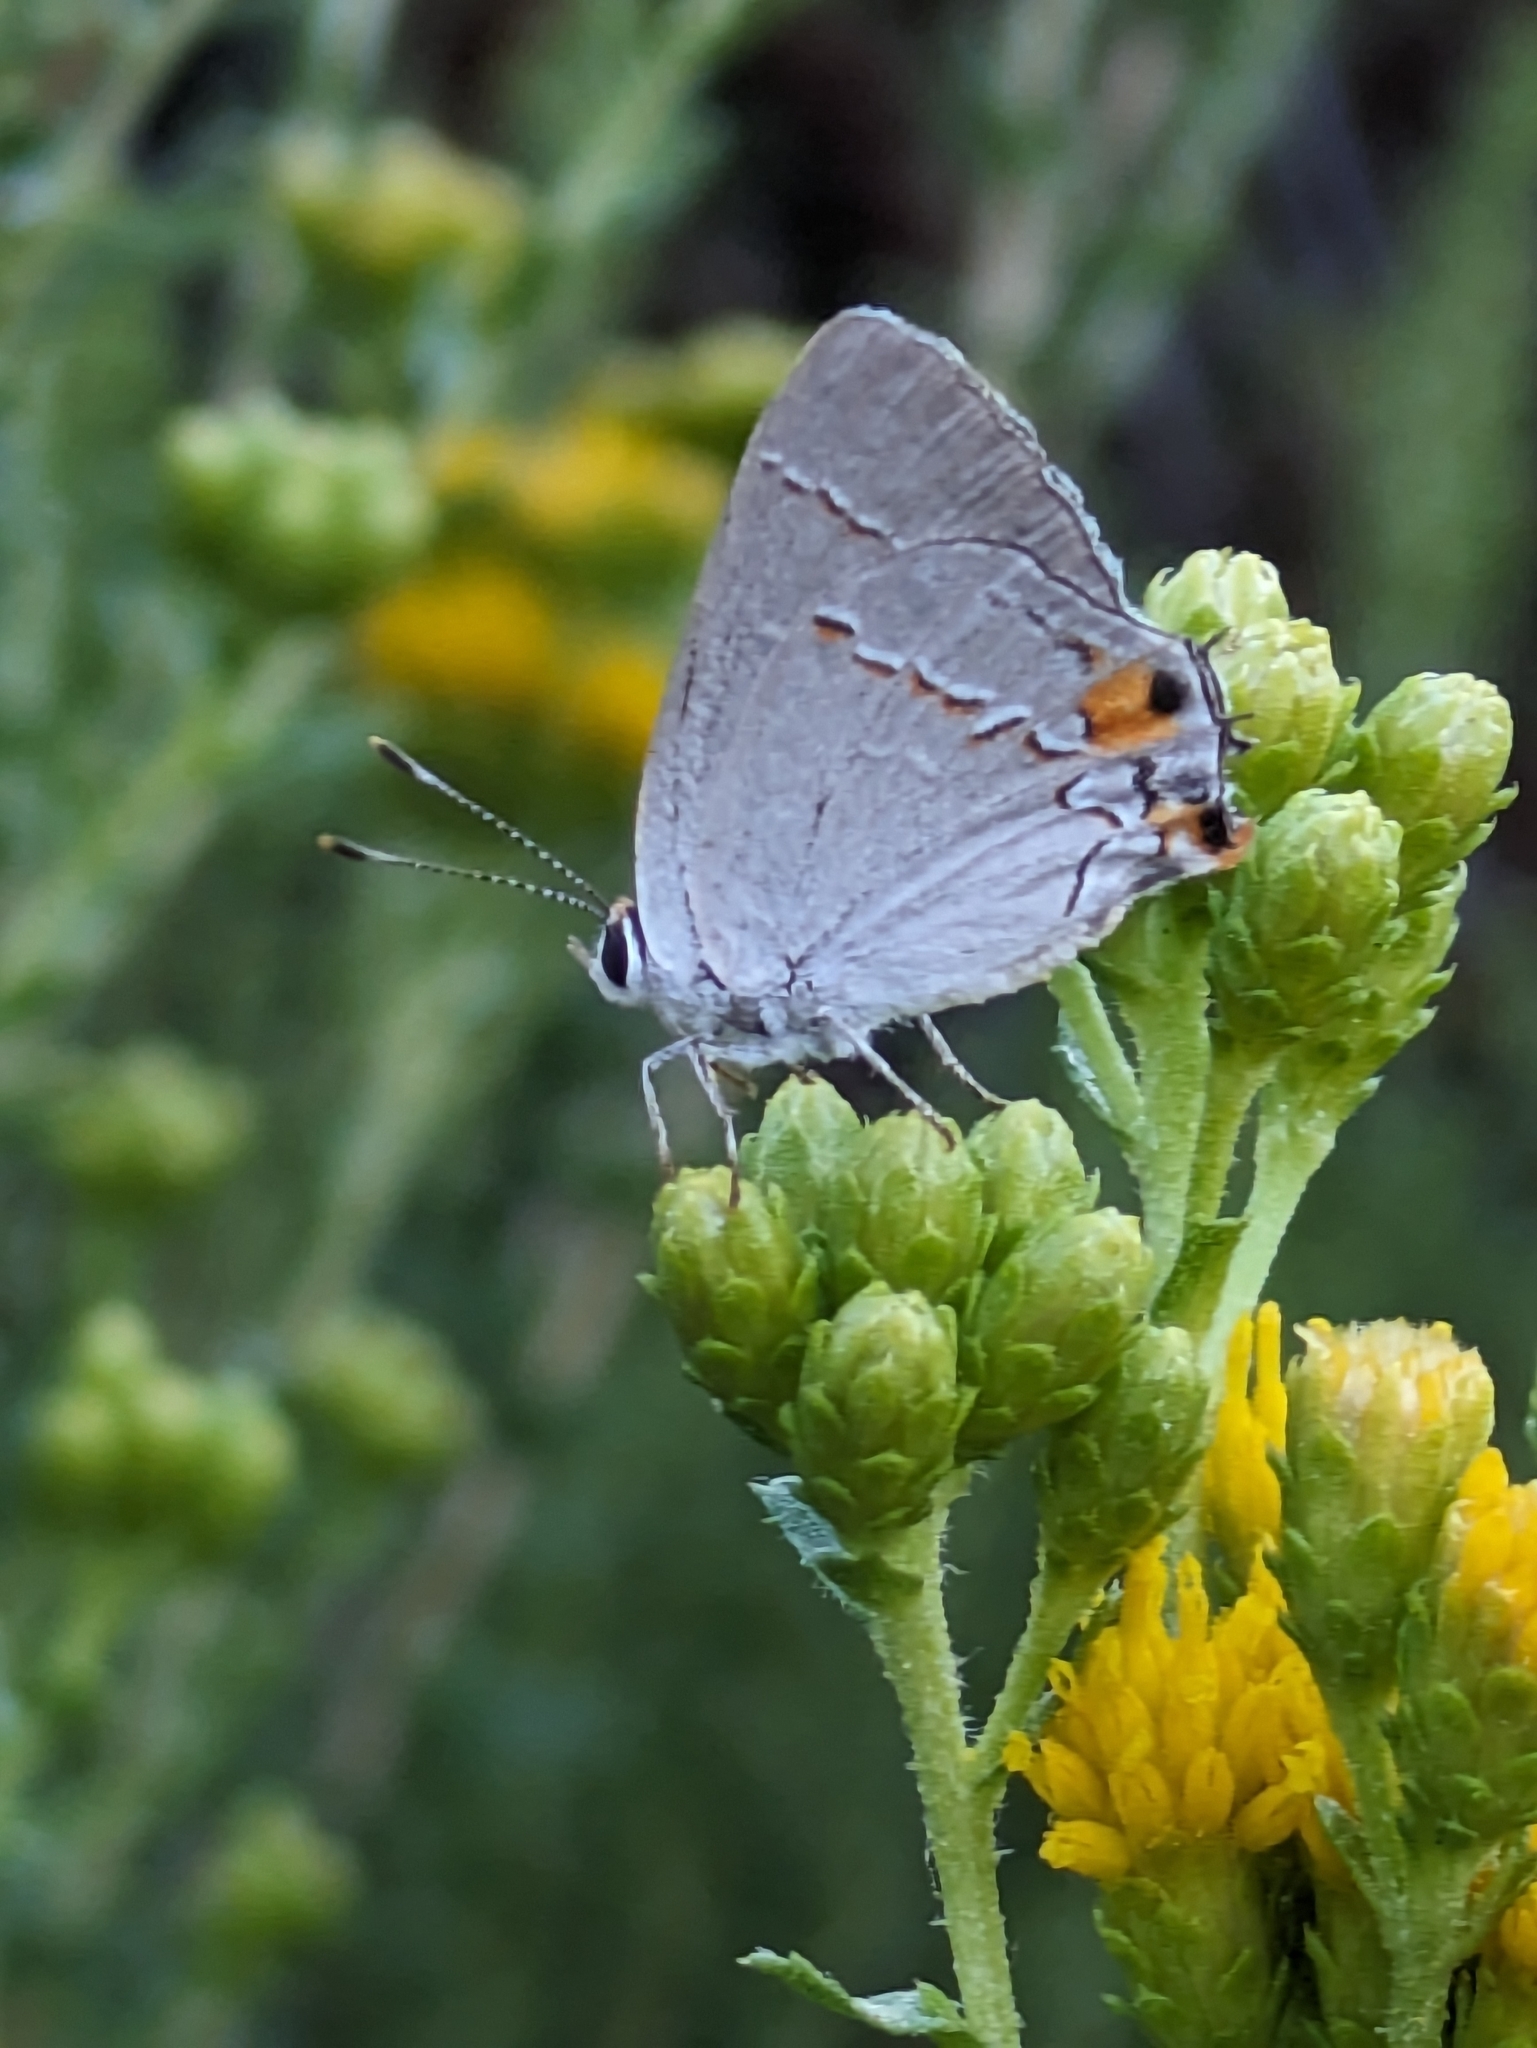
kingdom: Animalia
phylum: Arthropoda
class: Insecta
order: Lepidoptera
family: Lycaenidae
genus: Strymon
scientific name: Strymon melinus
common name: Gray hairstreak
